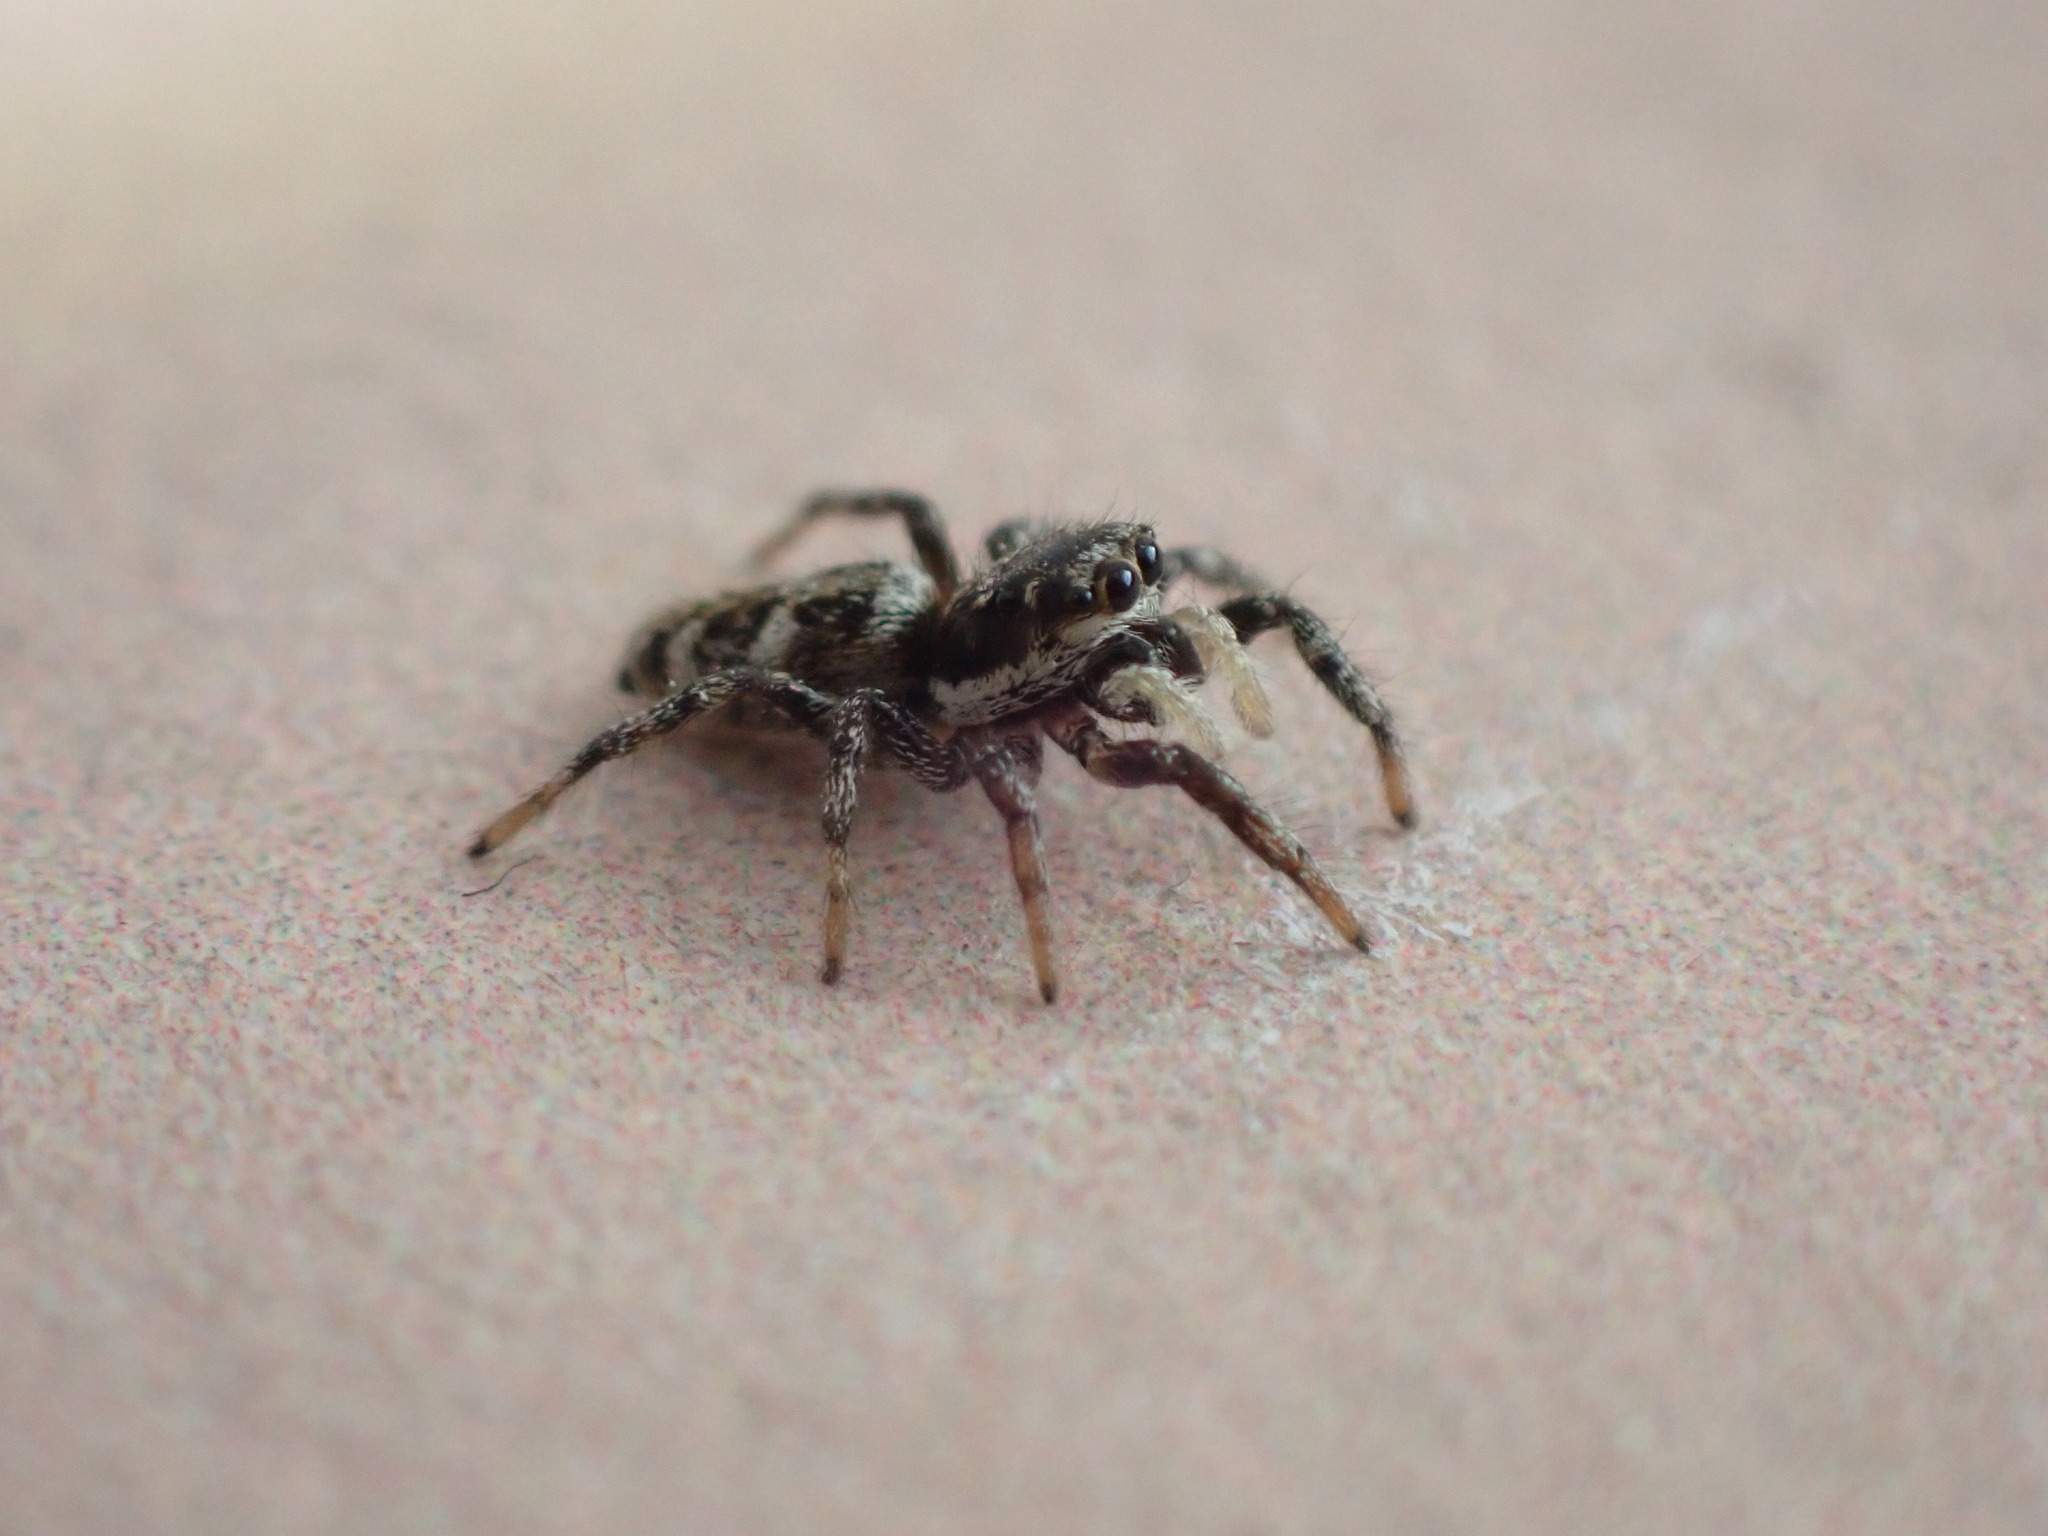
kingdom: Animalia
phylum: Arthropoda
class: Arachnida
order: Araneae
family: Salticidae
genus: Salticus
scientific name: Salticus scenicus
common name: Zebra jumper
